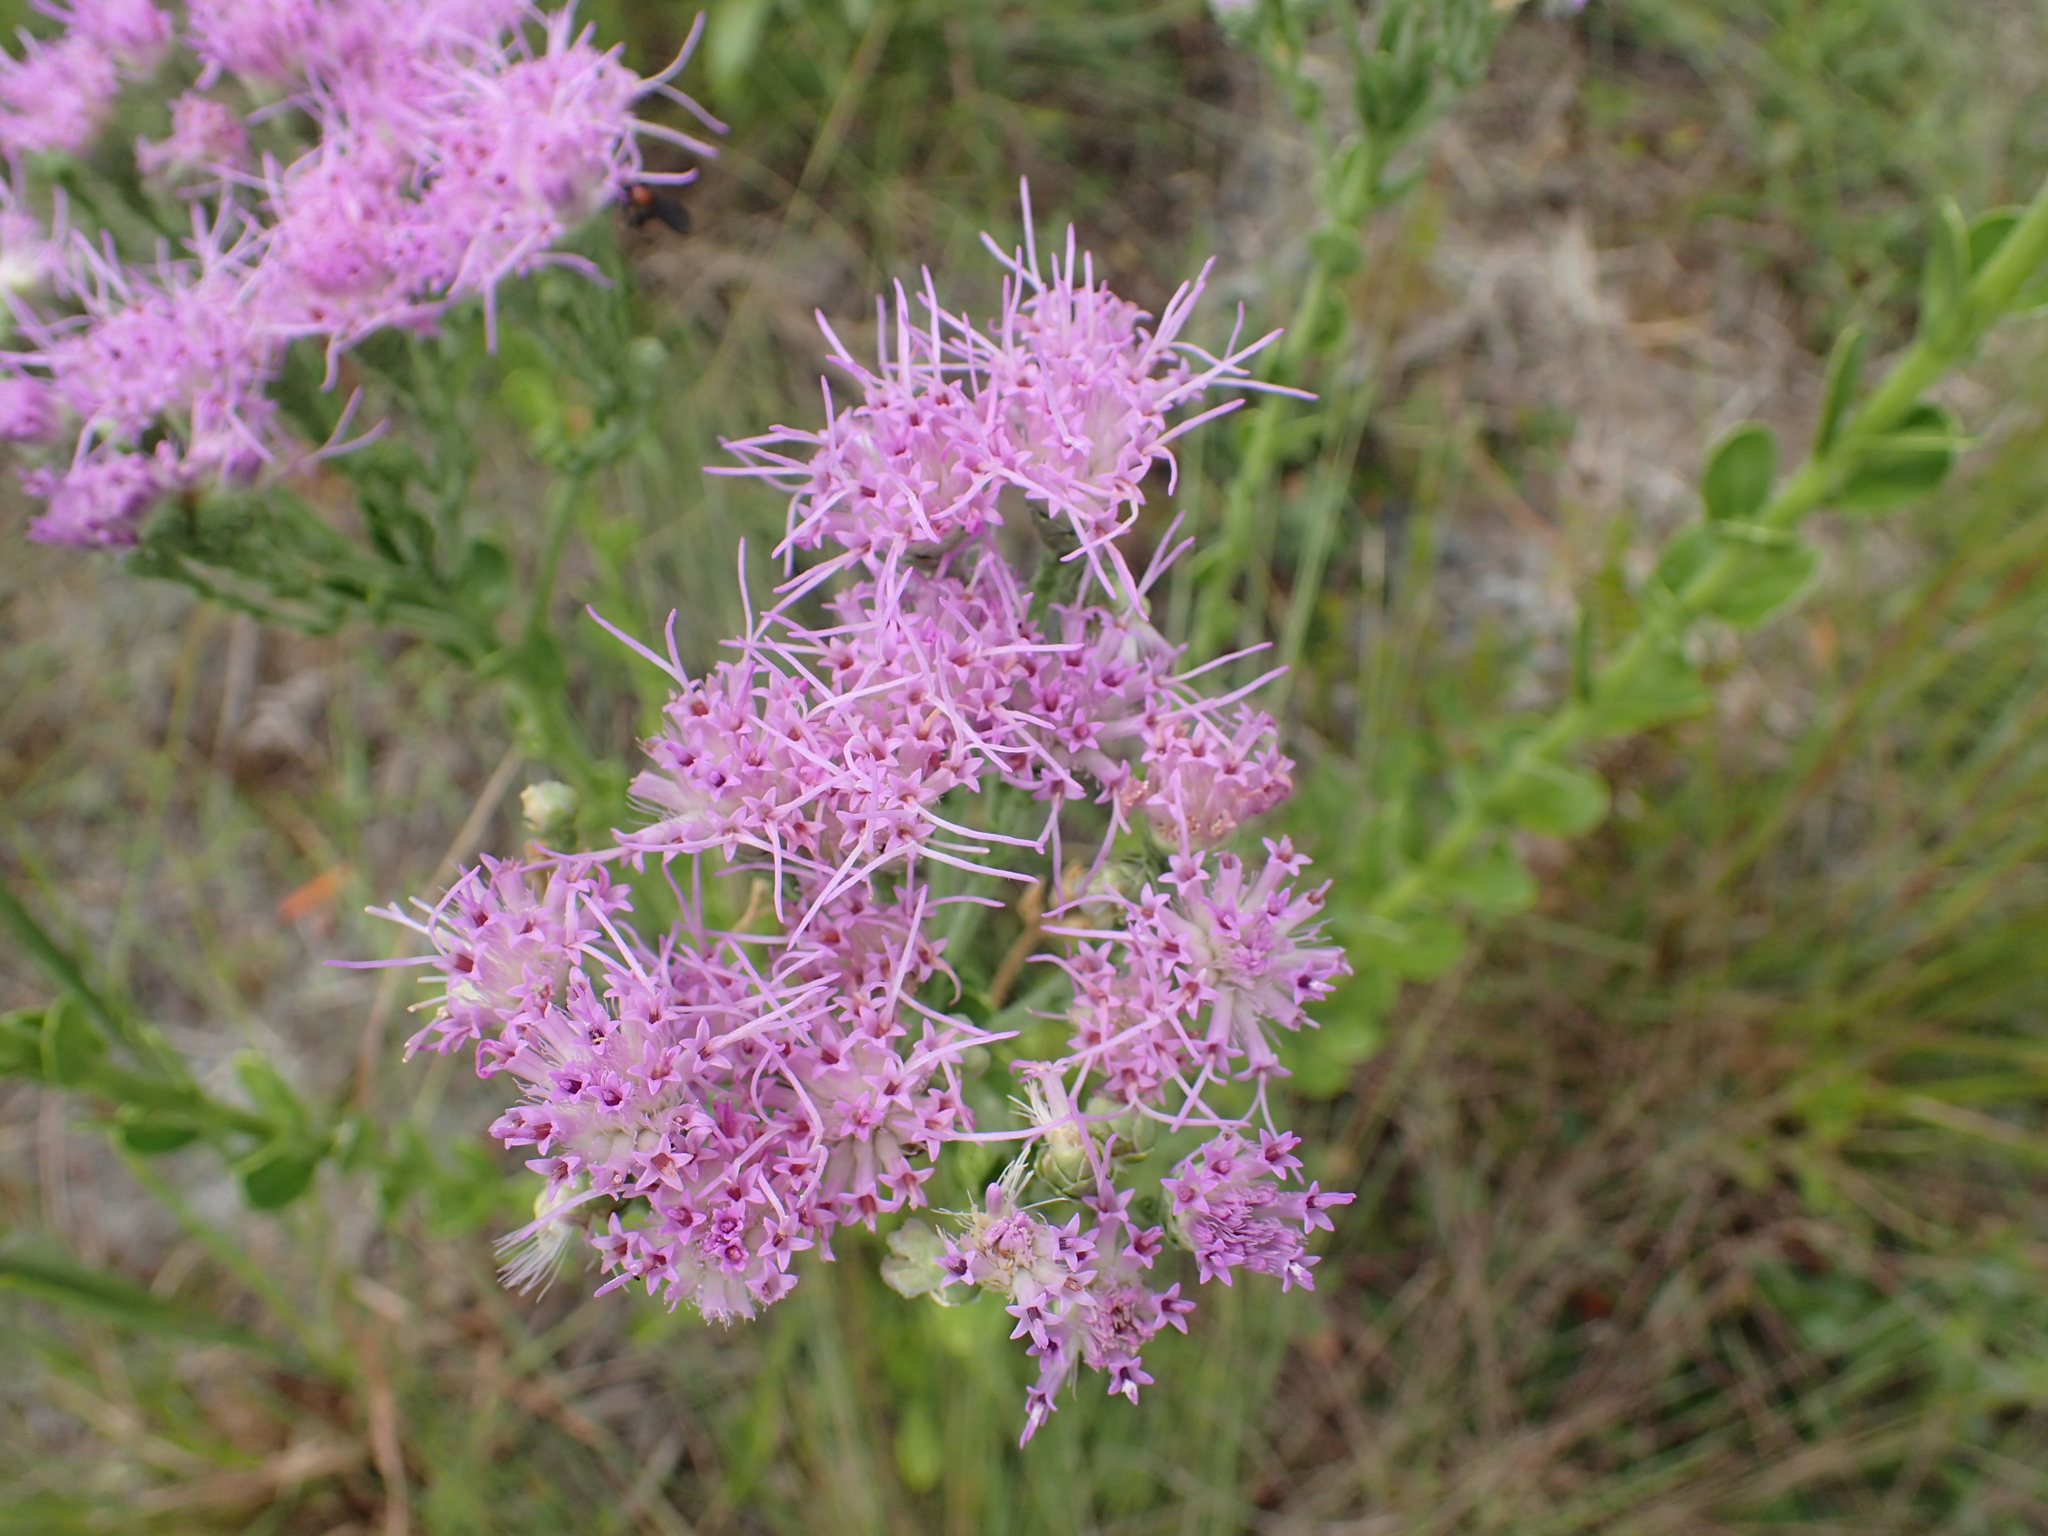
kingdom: Plantae
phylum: Tracheophyta
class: Magnoliopsida
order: Asterales
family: Asteraceae
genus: Carphephorus
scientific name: Carphephorus corymbosus
